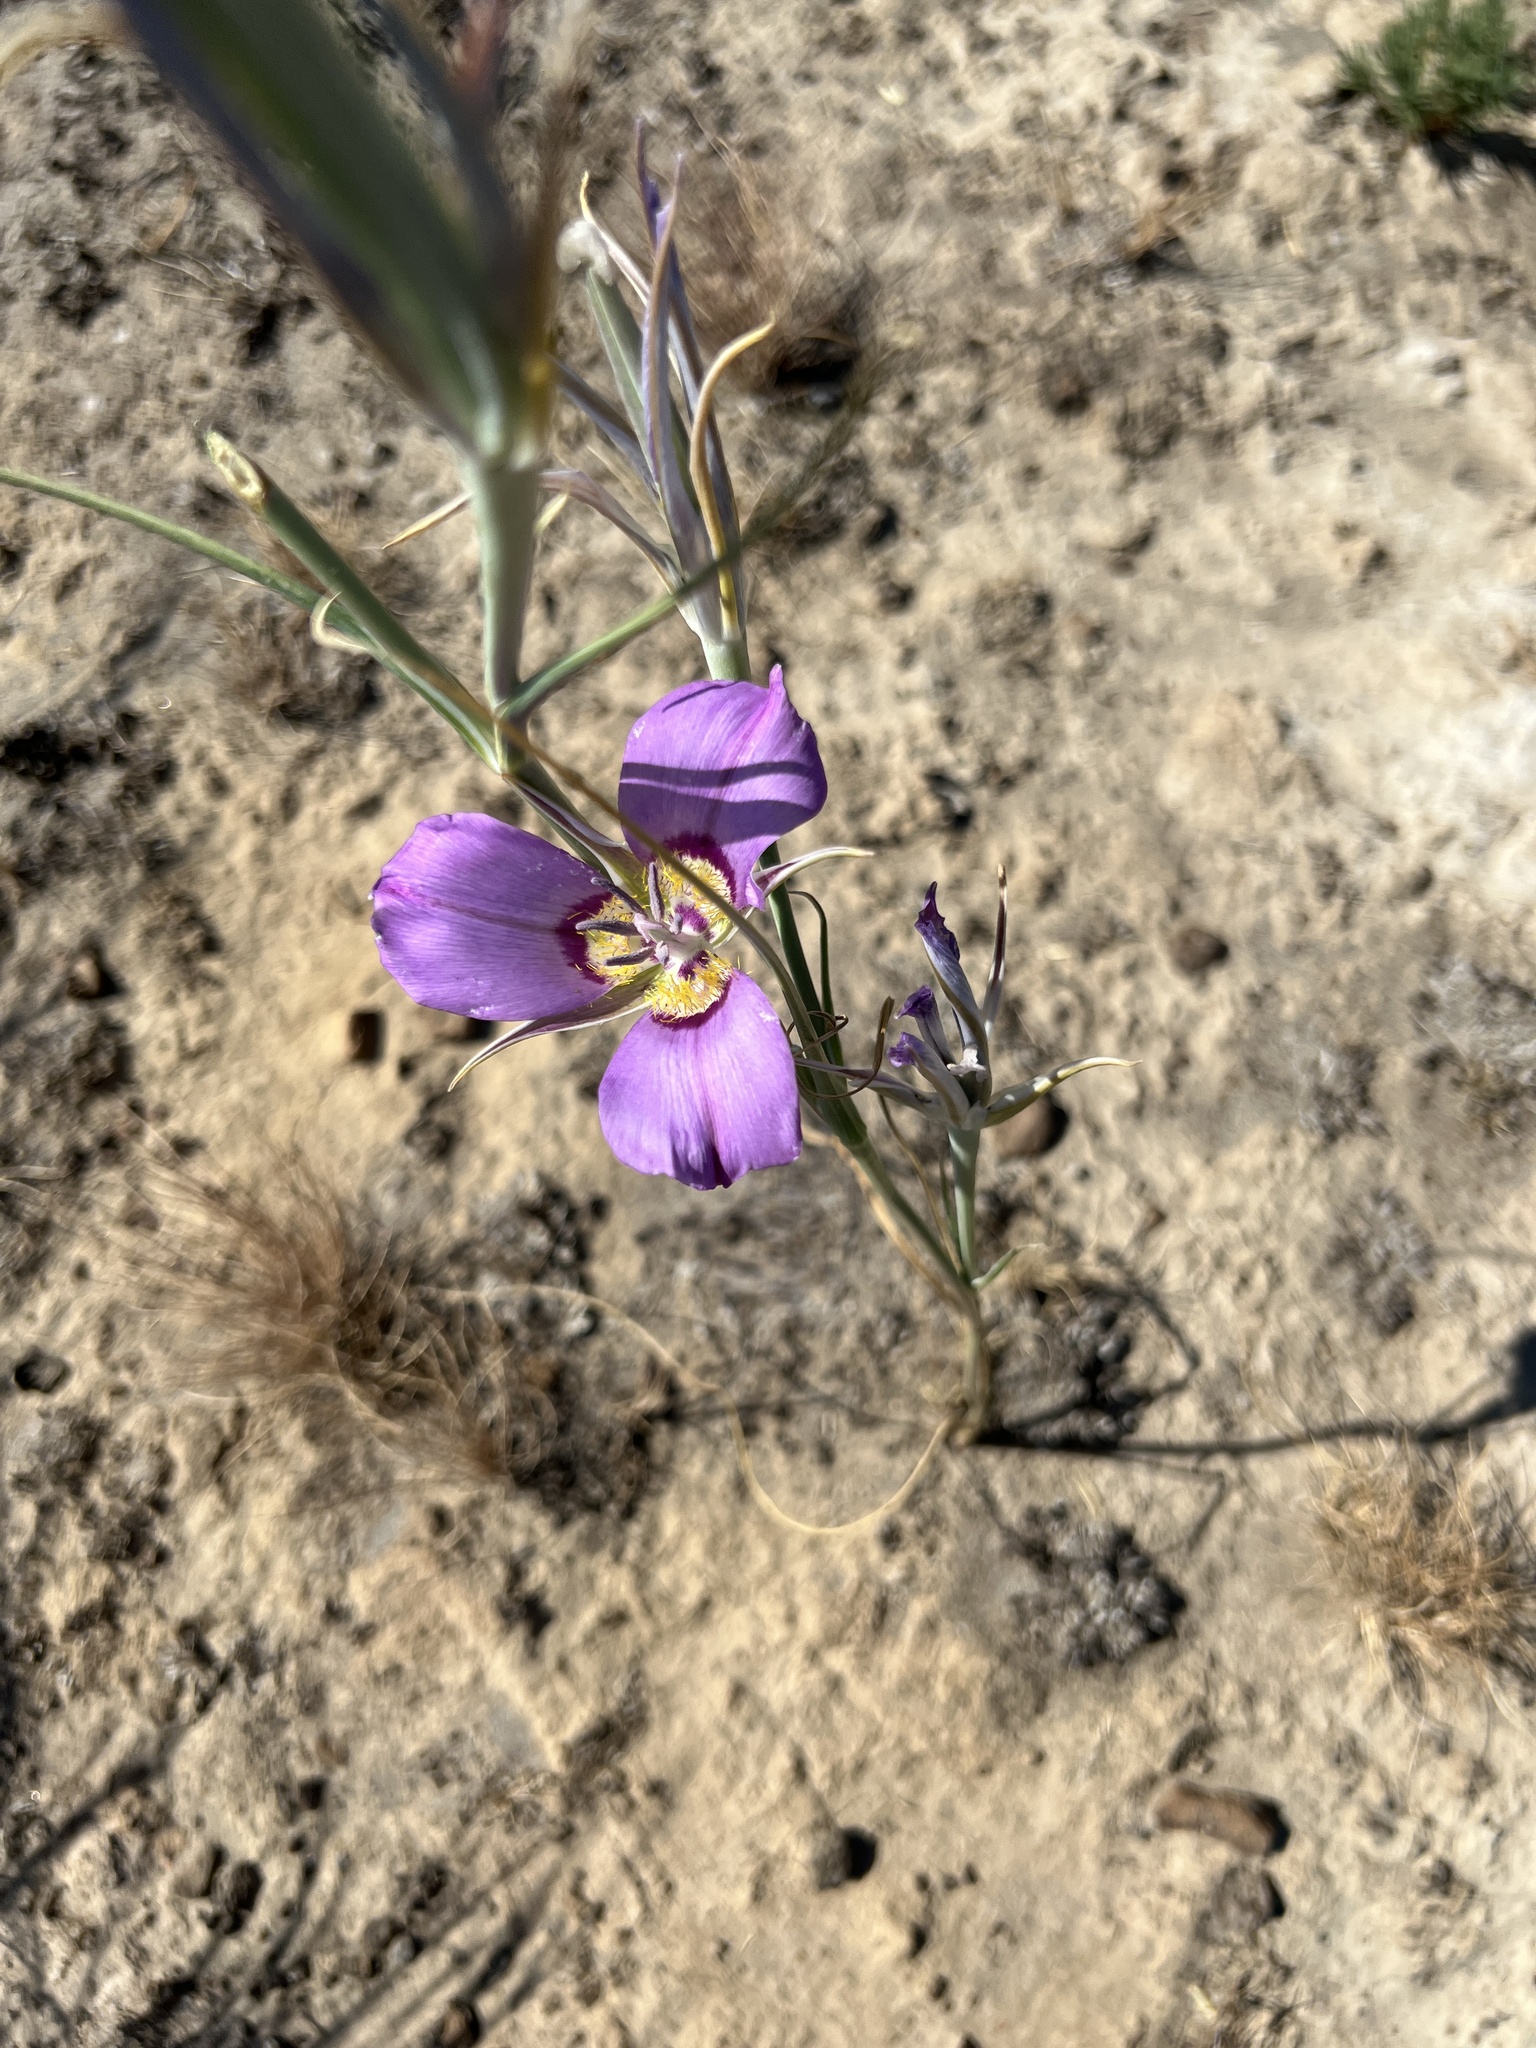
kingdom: Plantae
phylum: Tracheophyta
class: Liliopsida
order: Liliales
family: Liliaceae
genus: Calochortus
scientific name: Calochortus macrocarpus
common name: Green-band mariposa lily
